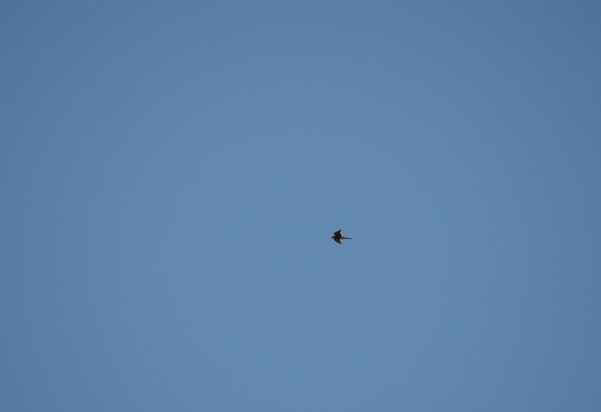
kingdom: Animalia
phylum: Chordata
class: Aves
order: Accipitriformes
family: Accipitridae
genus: Elanus
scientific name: Elanus leucurus
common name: White-tailed kite
